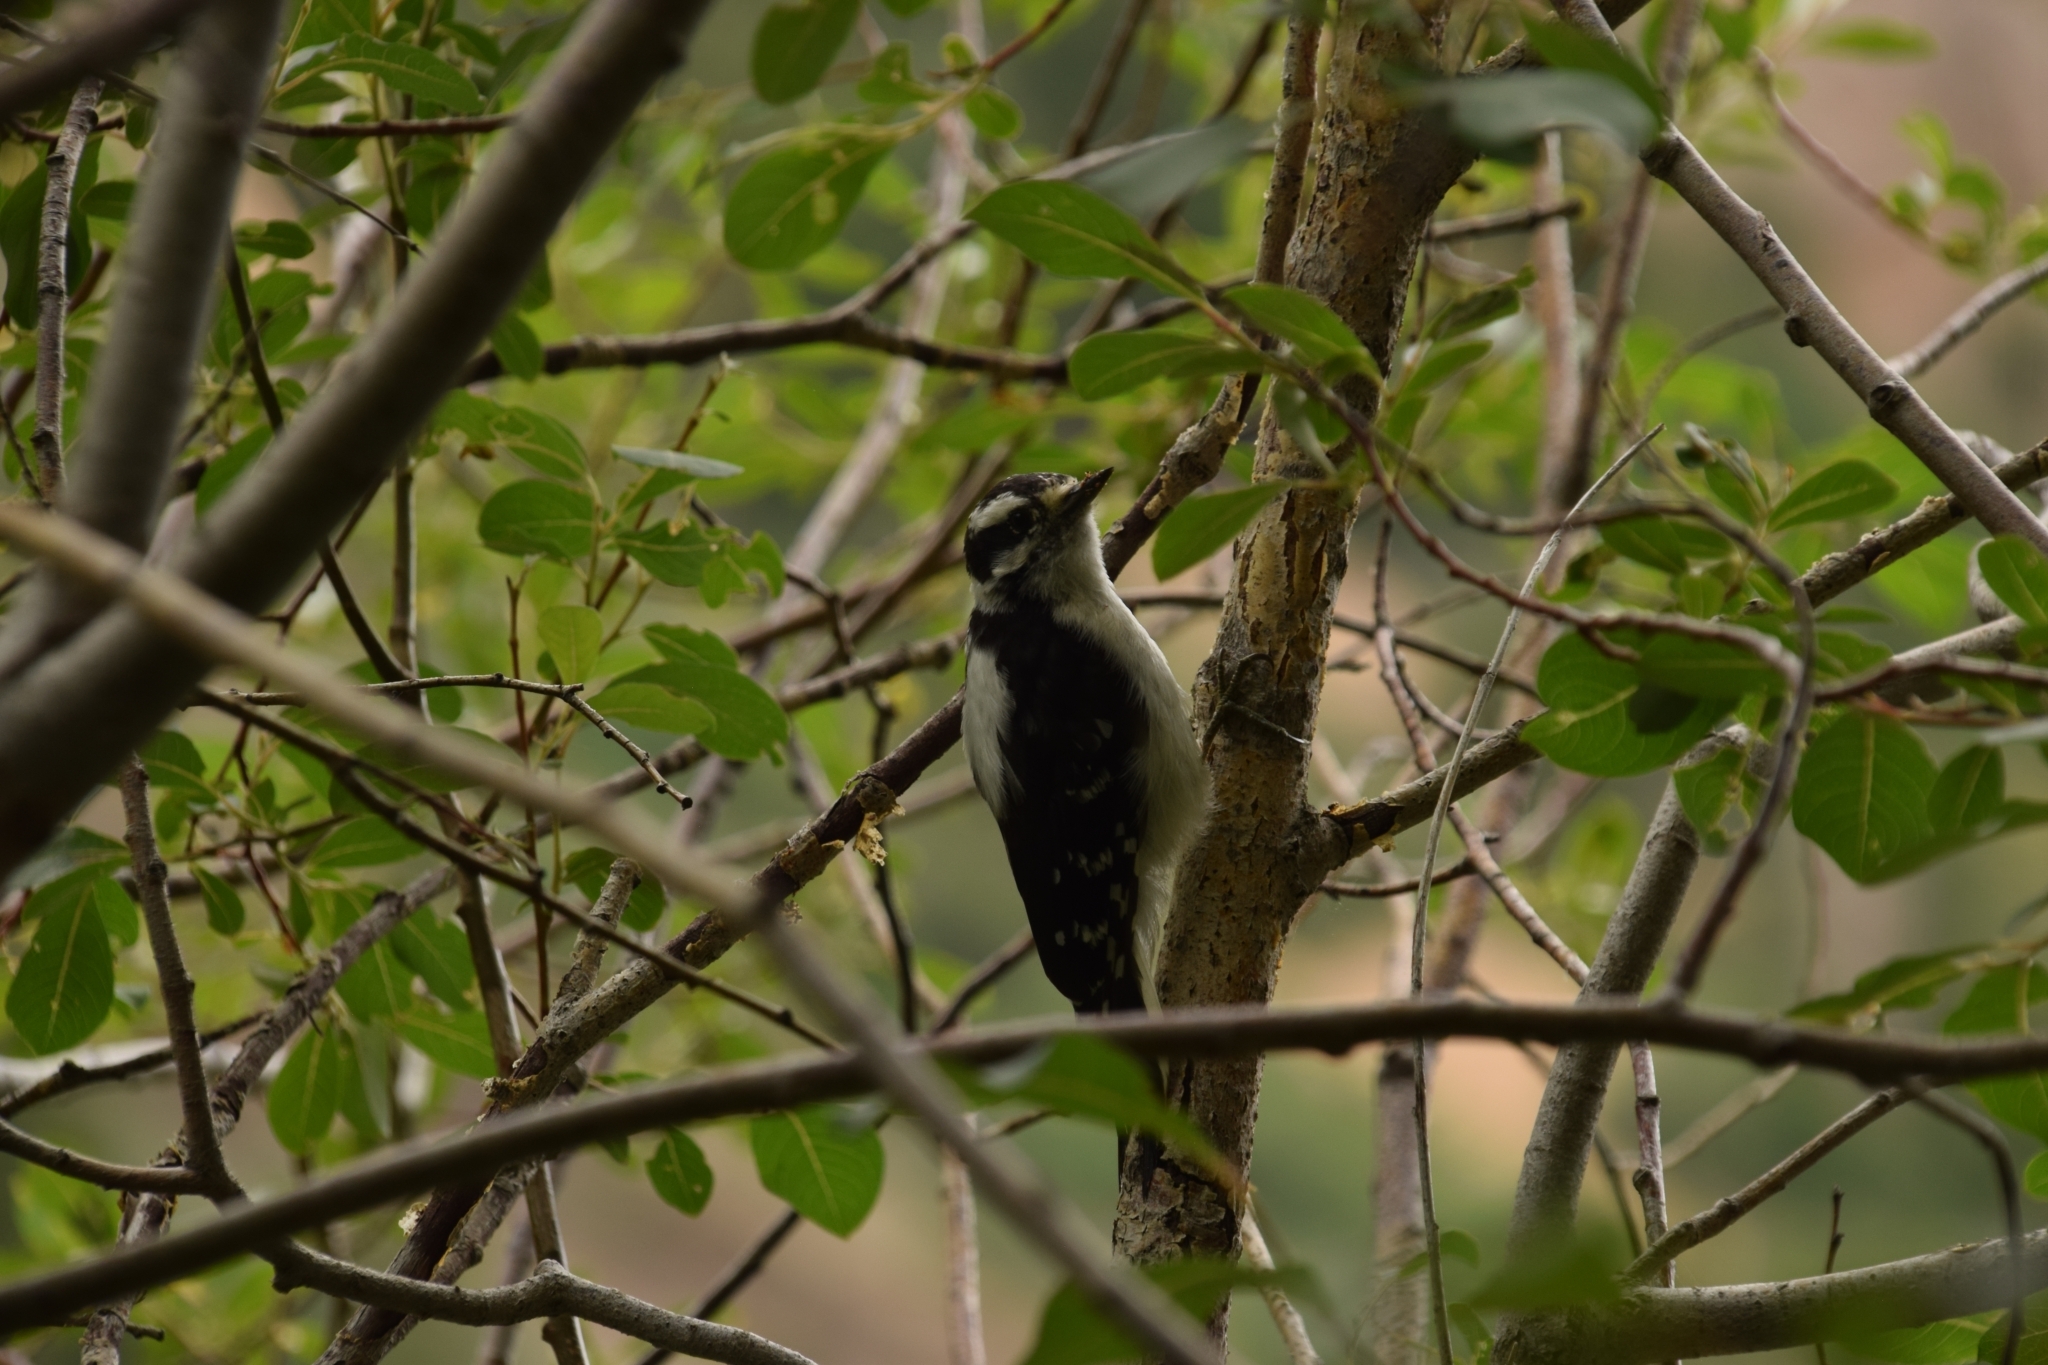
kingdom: Animalia
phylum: Chordata
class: Aves
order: Piciformes
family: Picidae
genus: Dryobates
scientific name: Dryobates pubescens
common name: Downy woodpecker
